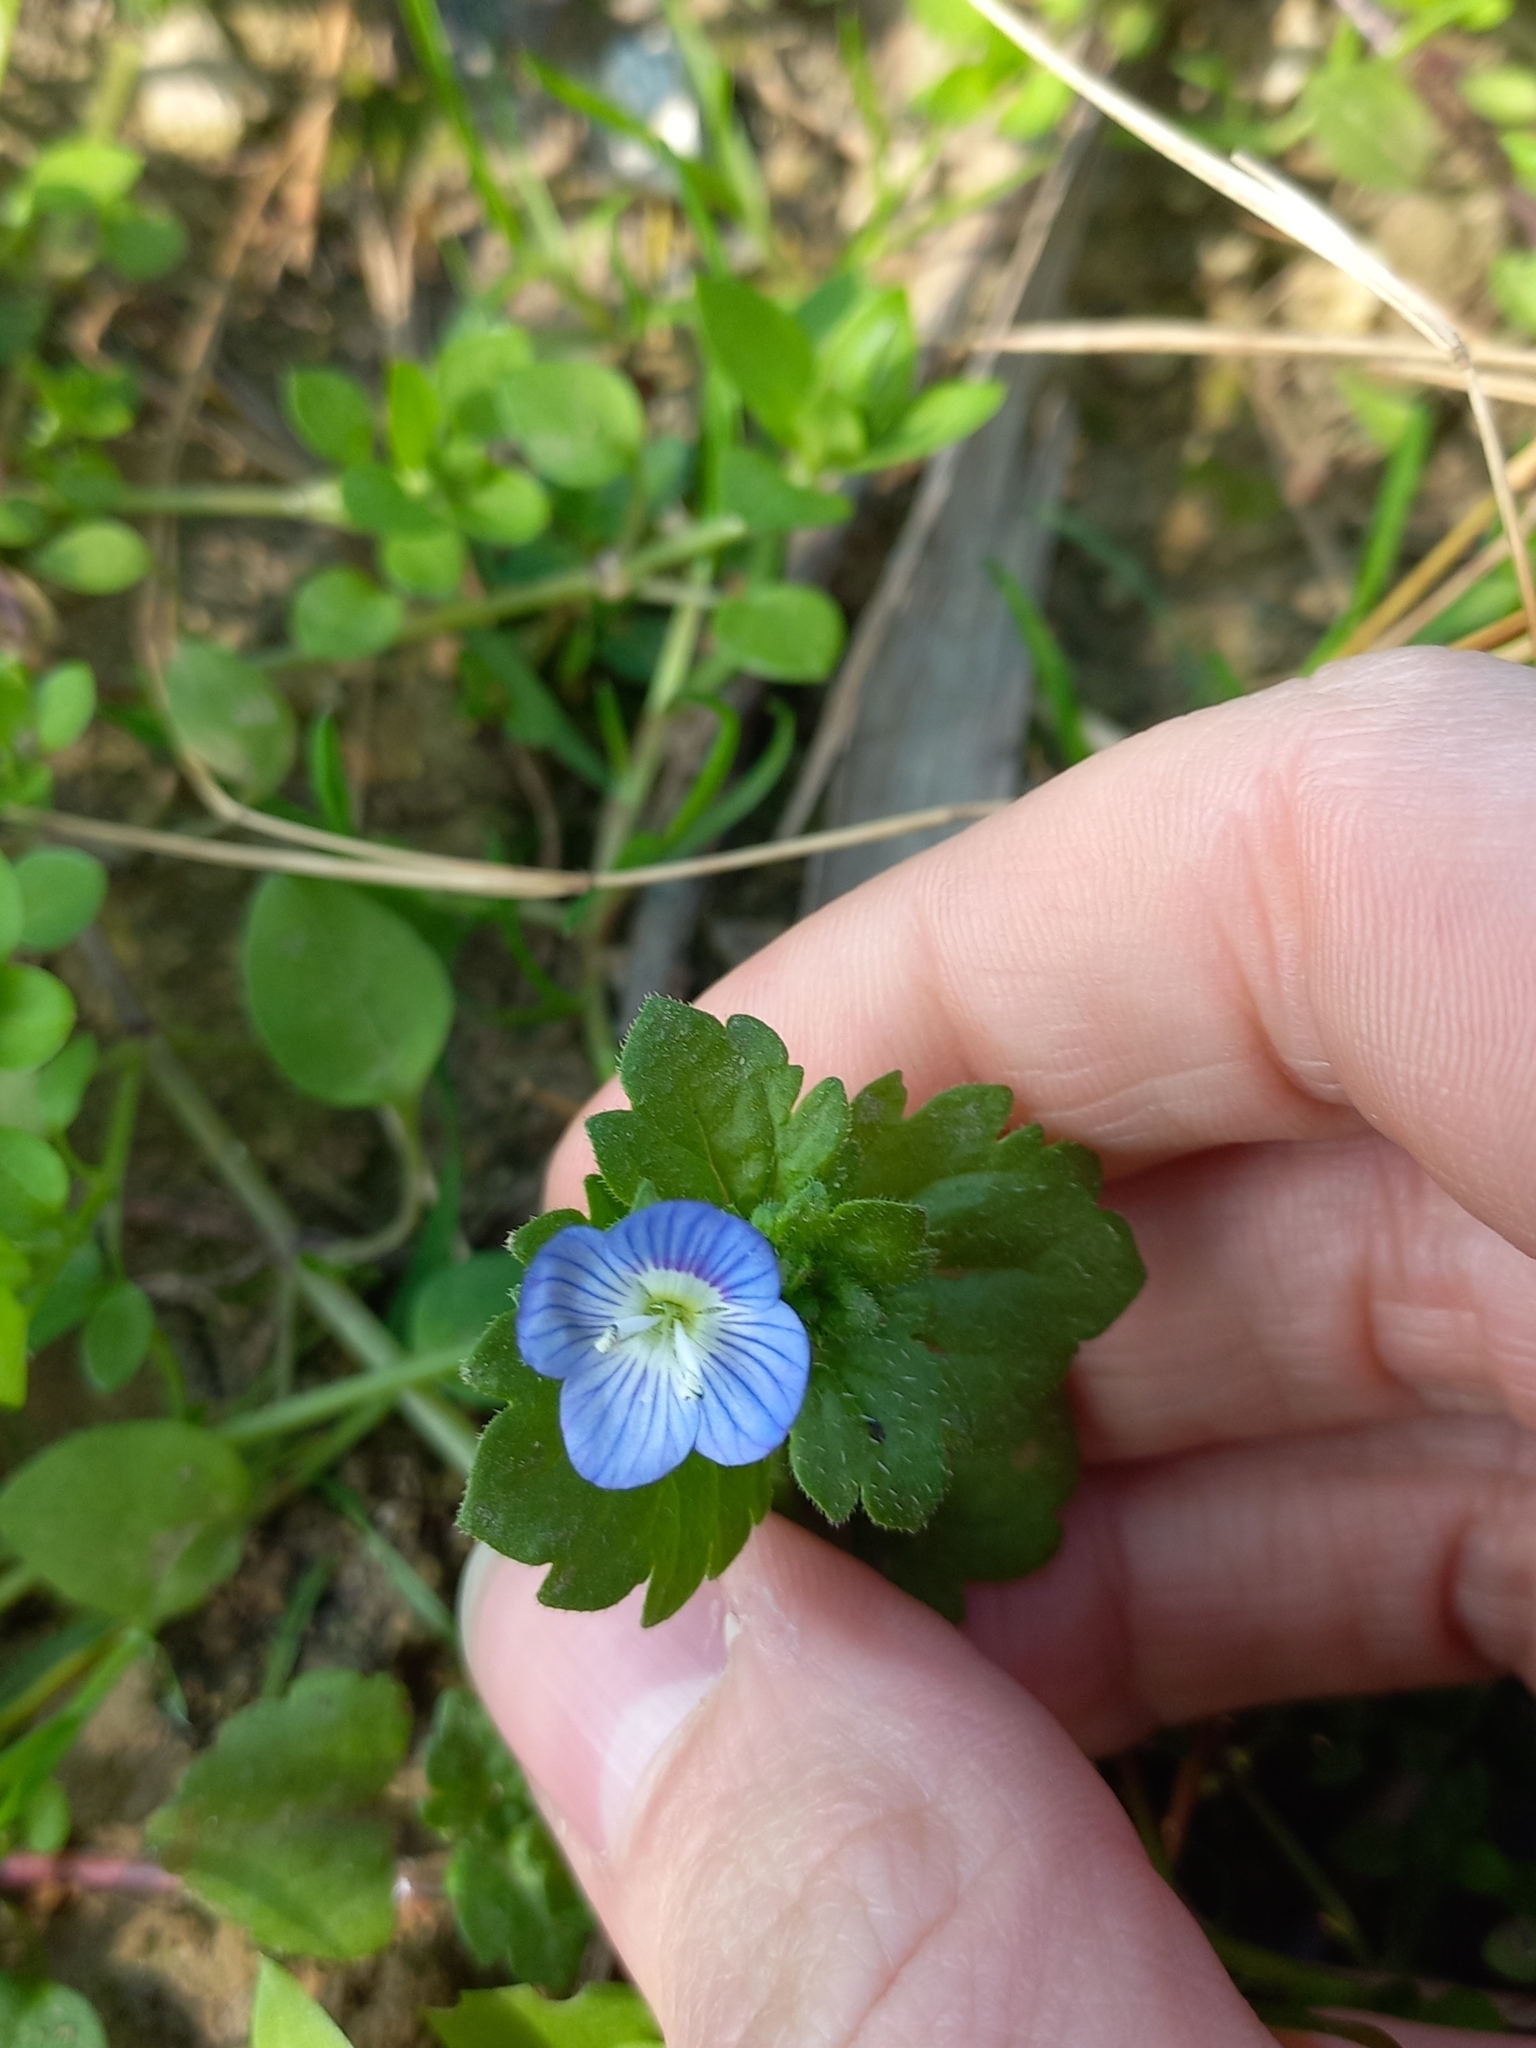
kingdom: Plantae
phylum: Tracheophyta
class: Magnoliopsida
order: Lamiales
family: Plantaginaceae
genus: Veronica
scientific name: Veronica persica
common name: Common field-speedwell
